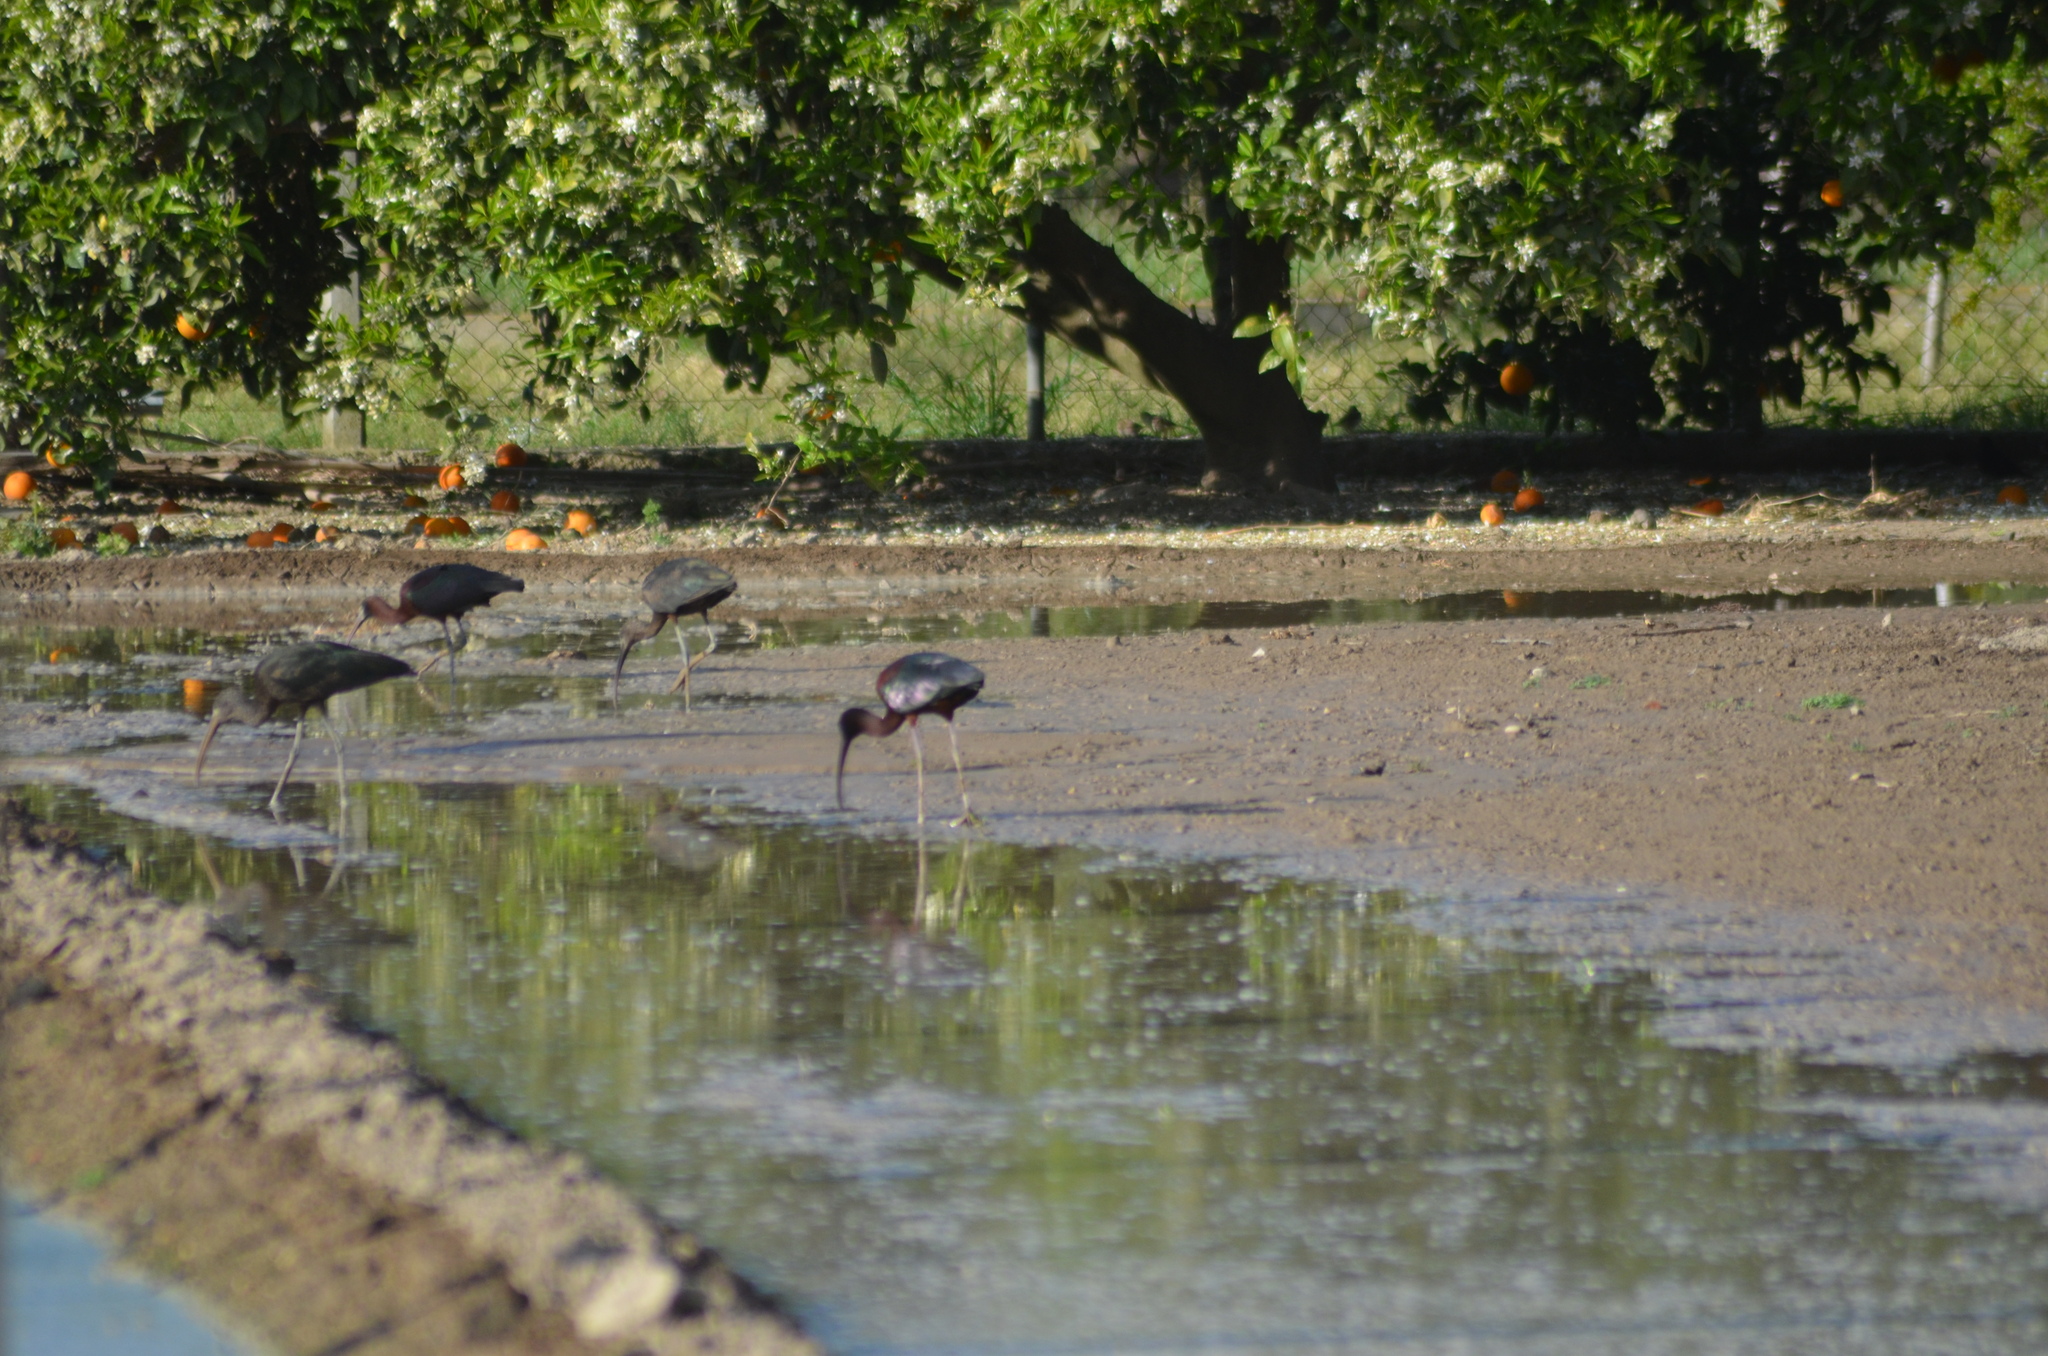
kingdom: Animalia
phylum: Chordata
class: Aves
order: Pelecaniformes
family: Threskiornithidae
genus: Plegadis
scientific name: Plegadis falcinellus
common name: Glossy ibis
